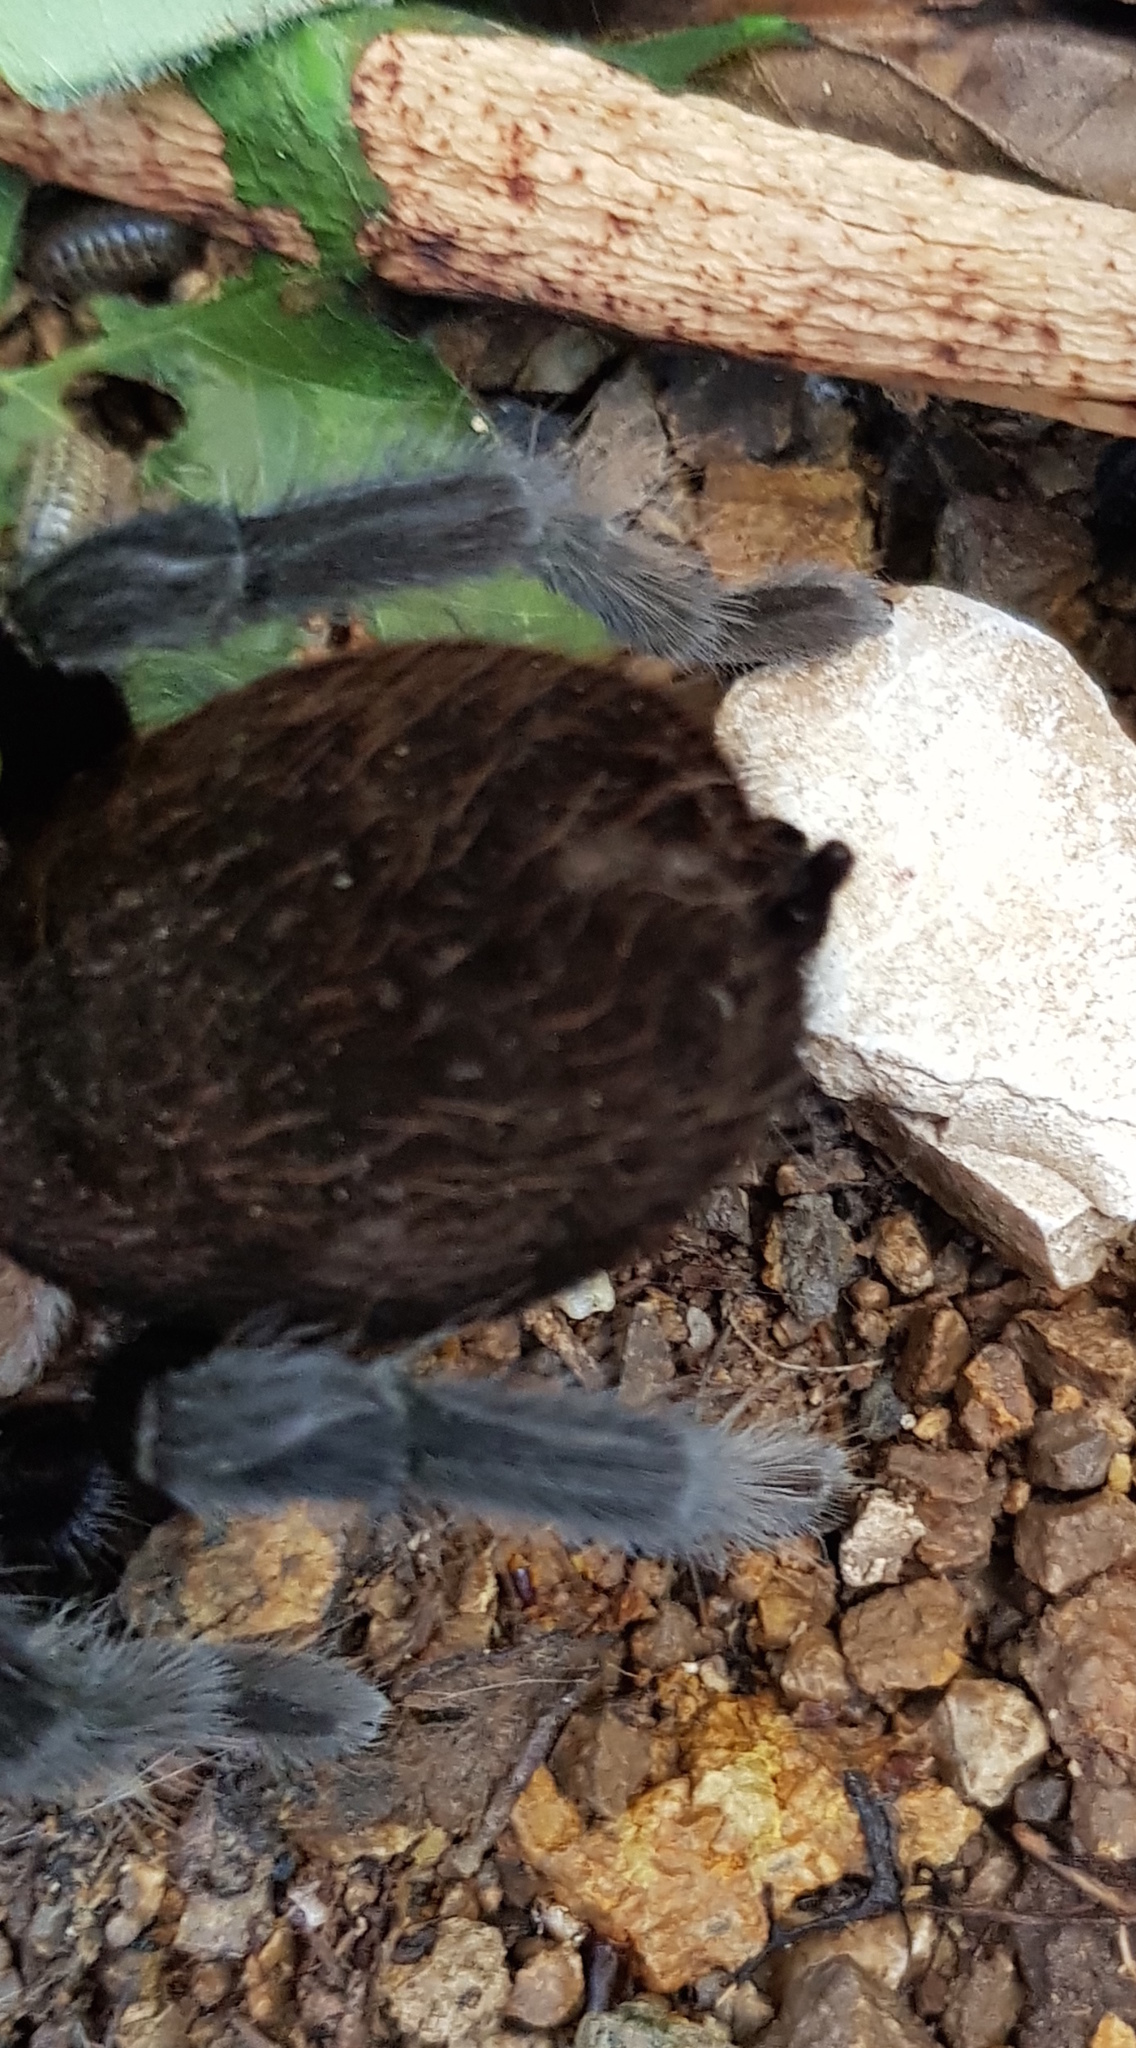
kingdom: Animalia
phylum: Arthropoda
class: Arachnida
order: Araneae
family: Theraphosidae
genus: Tliltocatl
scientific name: Tliltocatl schroederi
